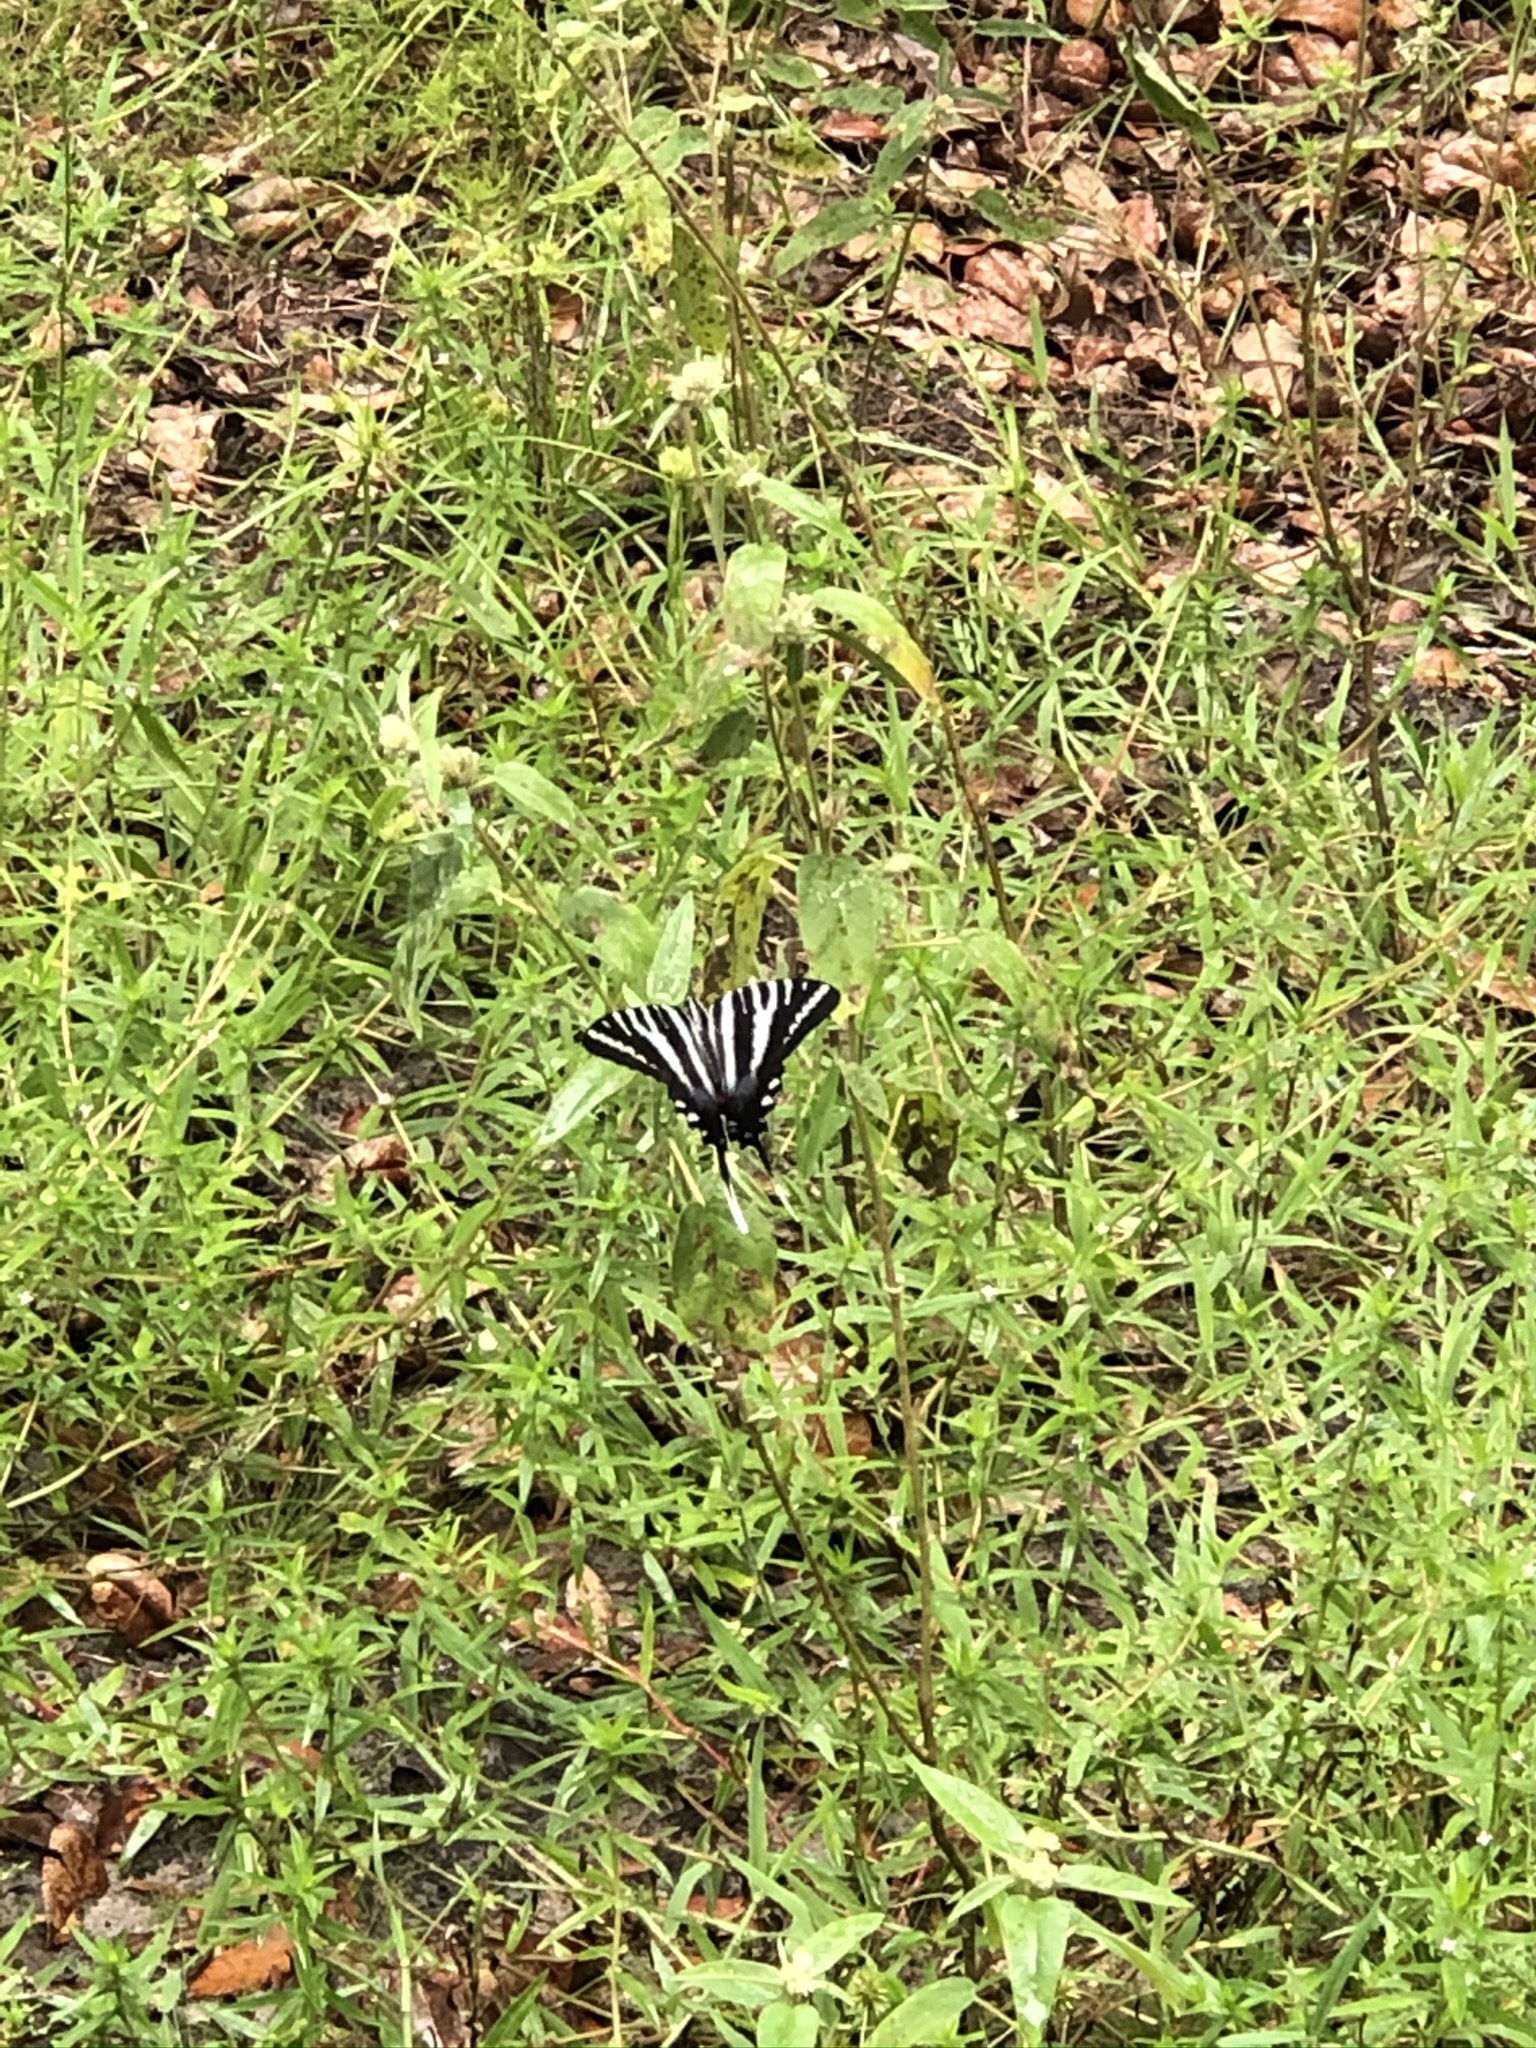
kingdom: Animalia
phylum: Arthropoda
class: Insecta
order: Lepidoptera
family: Papilionidae
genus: Protographium
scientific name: Protographium marcellus
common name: Zebra swallowtail
